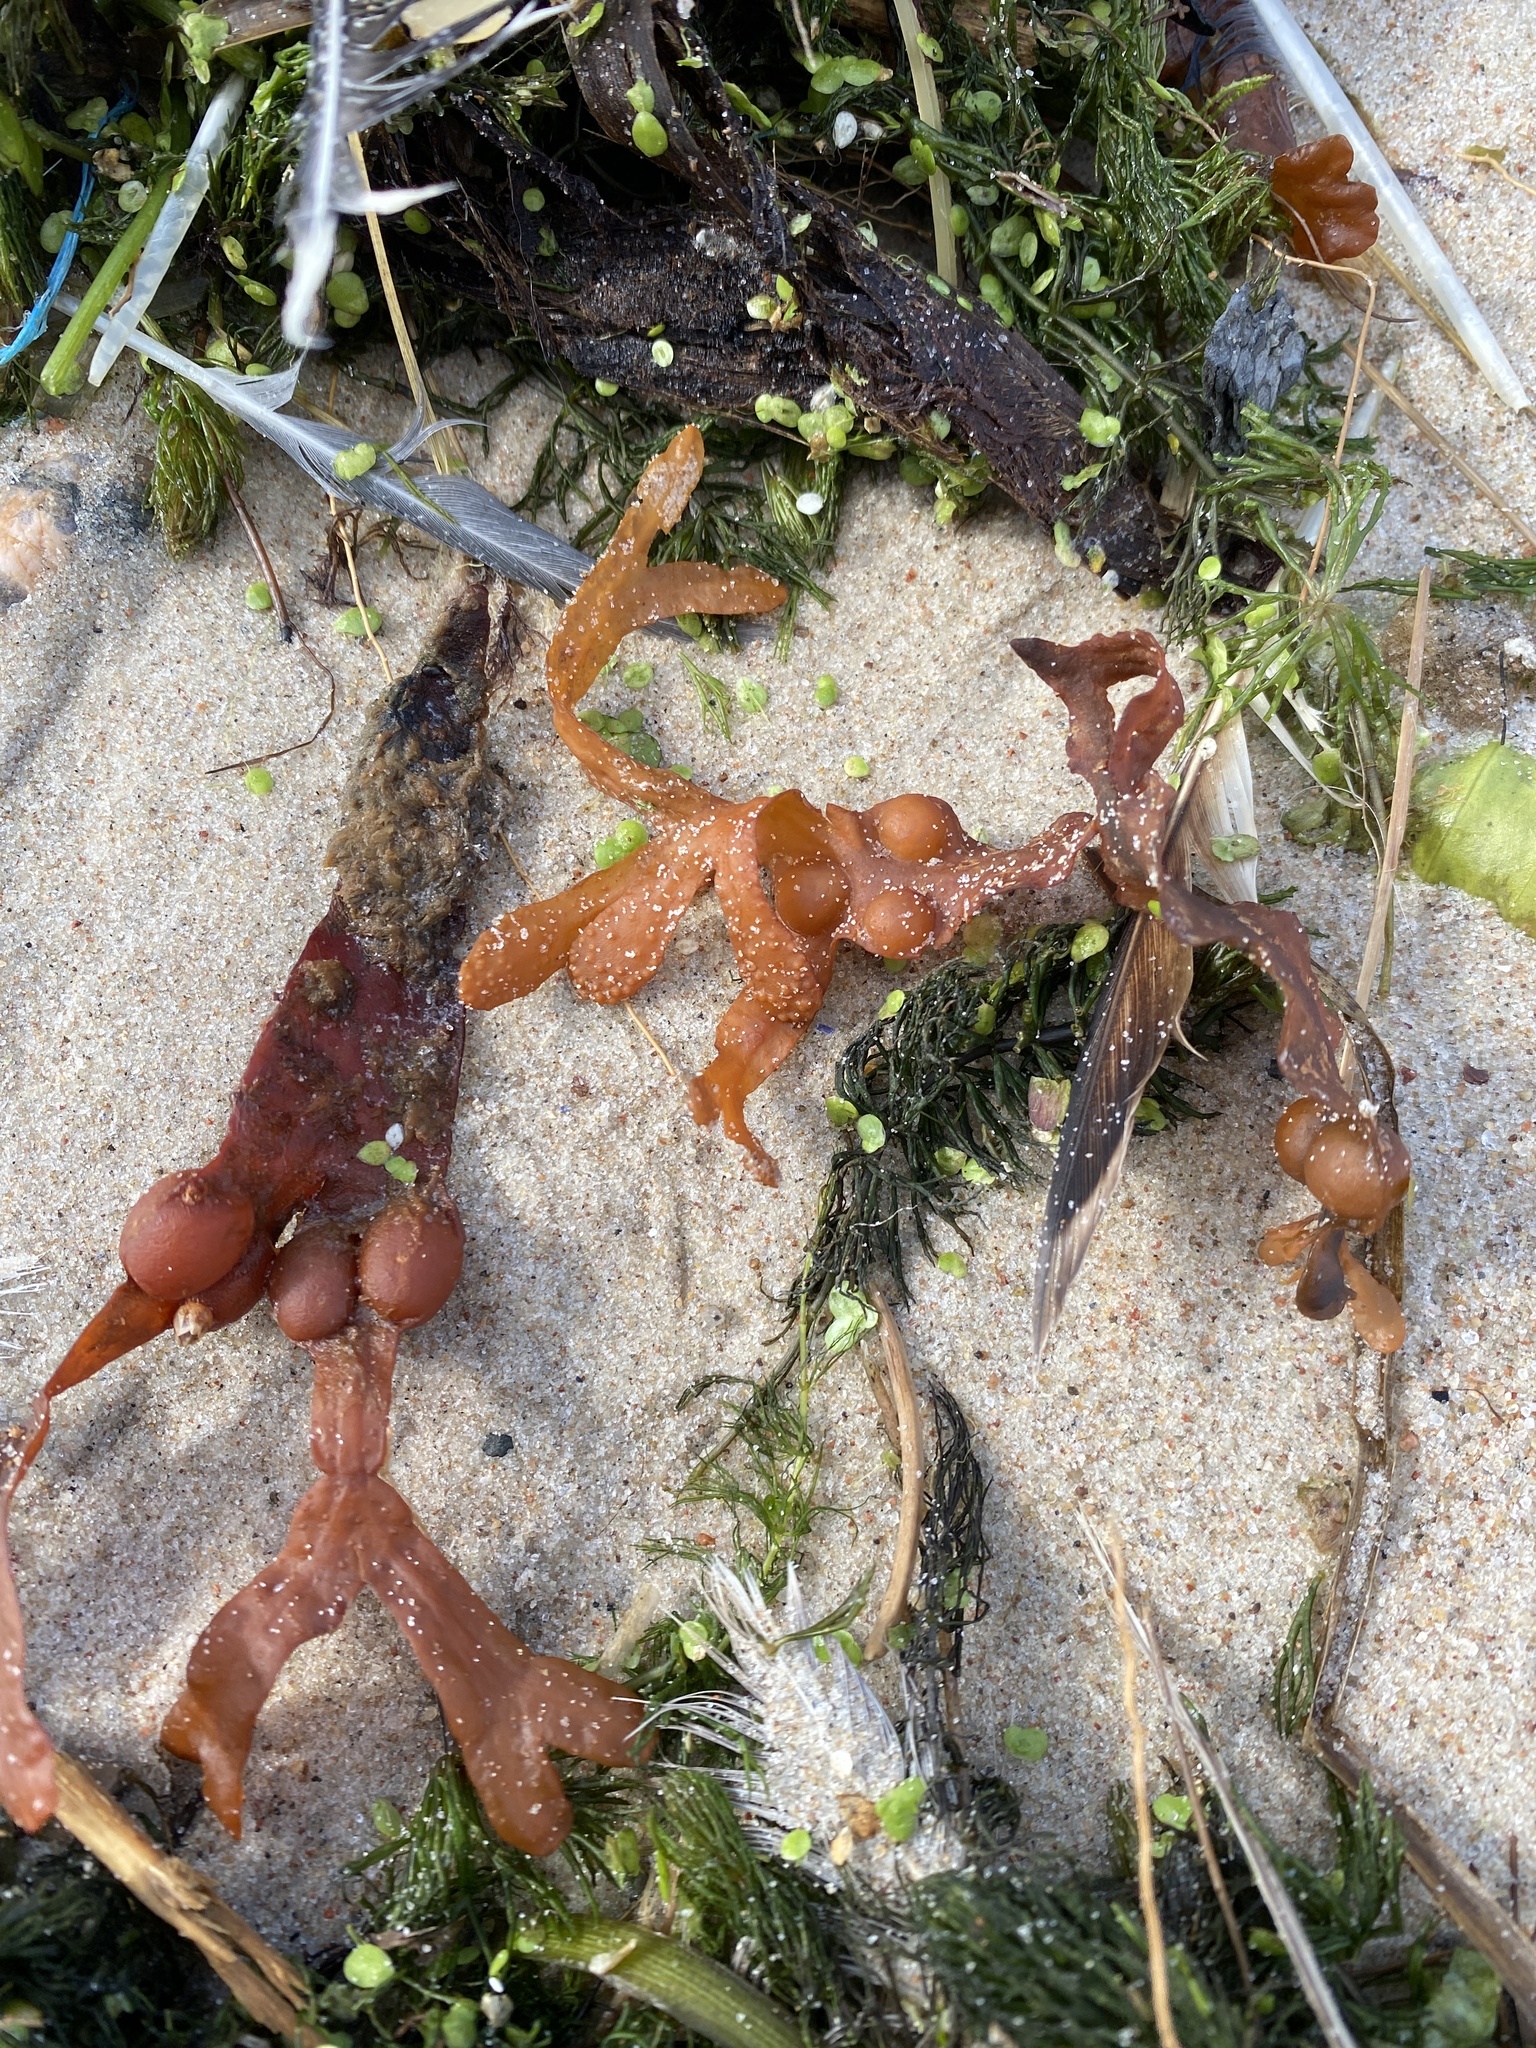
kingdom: Chromista
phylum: Ochrophyta
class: Phaeophyceae
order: Fucales
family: Fucaceae
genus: Fucus
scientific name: Fucus vesiculosus
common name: Bladder wrack
